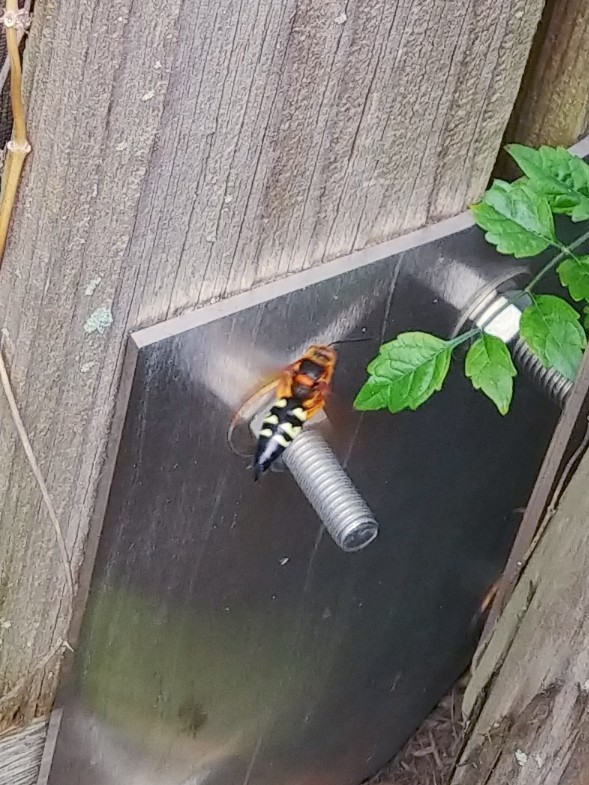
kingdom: Animalia
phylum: Arthropoda
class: Insecta
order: Hymenoptera
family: Crabronidae
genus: Sphecius
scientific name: Sphecius speciosus
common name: Cicada killer
